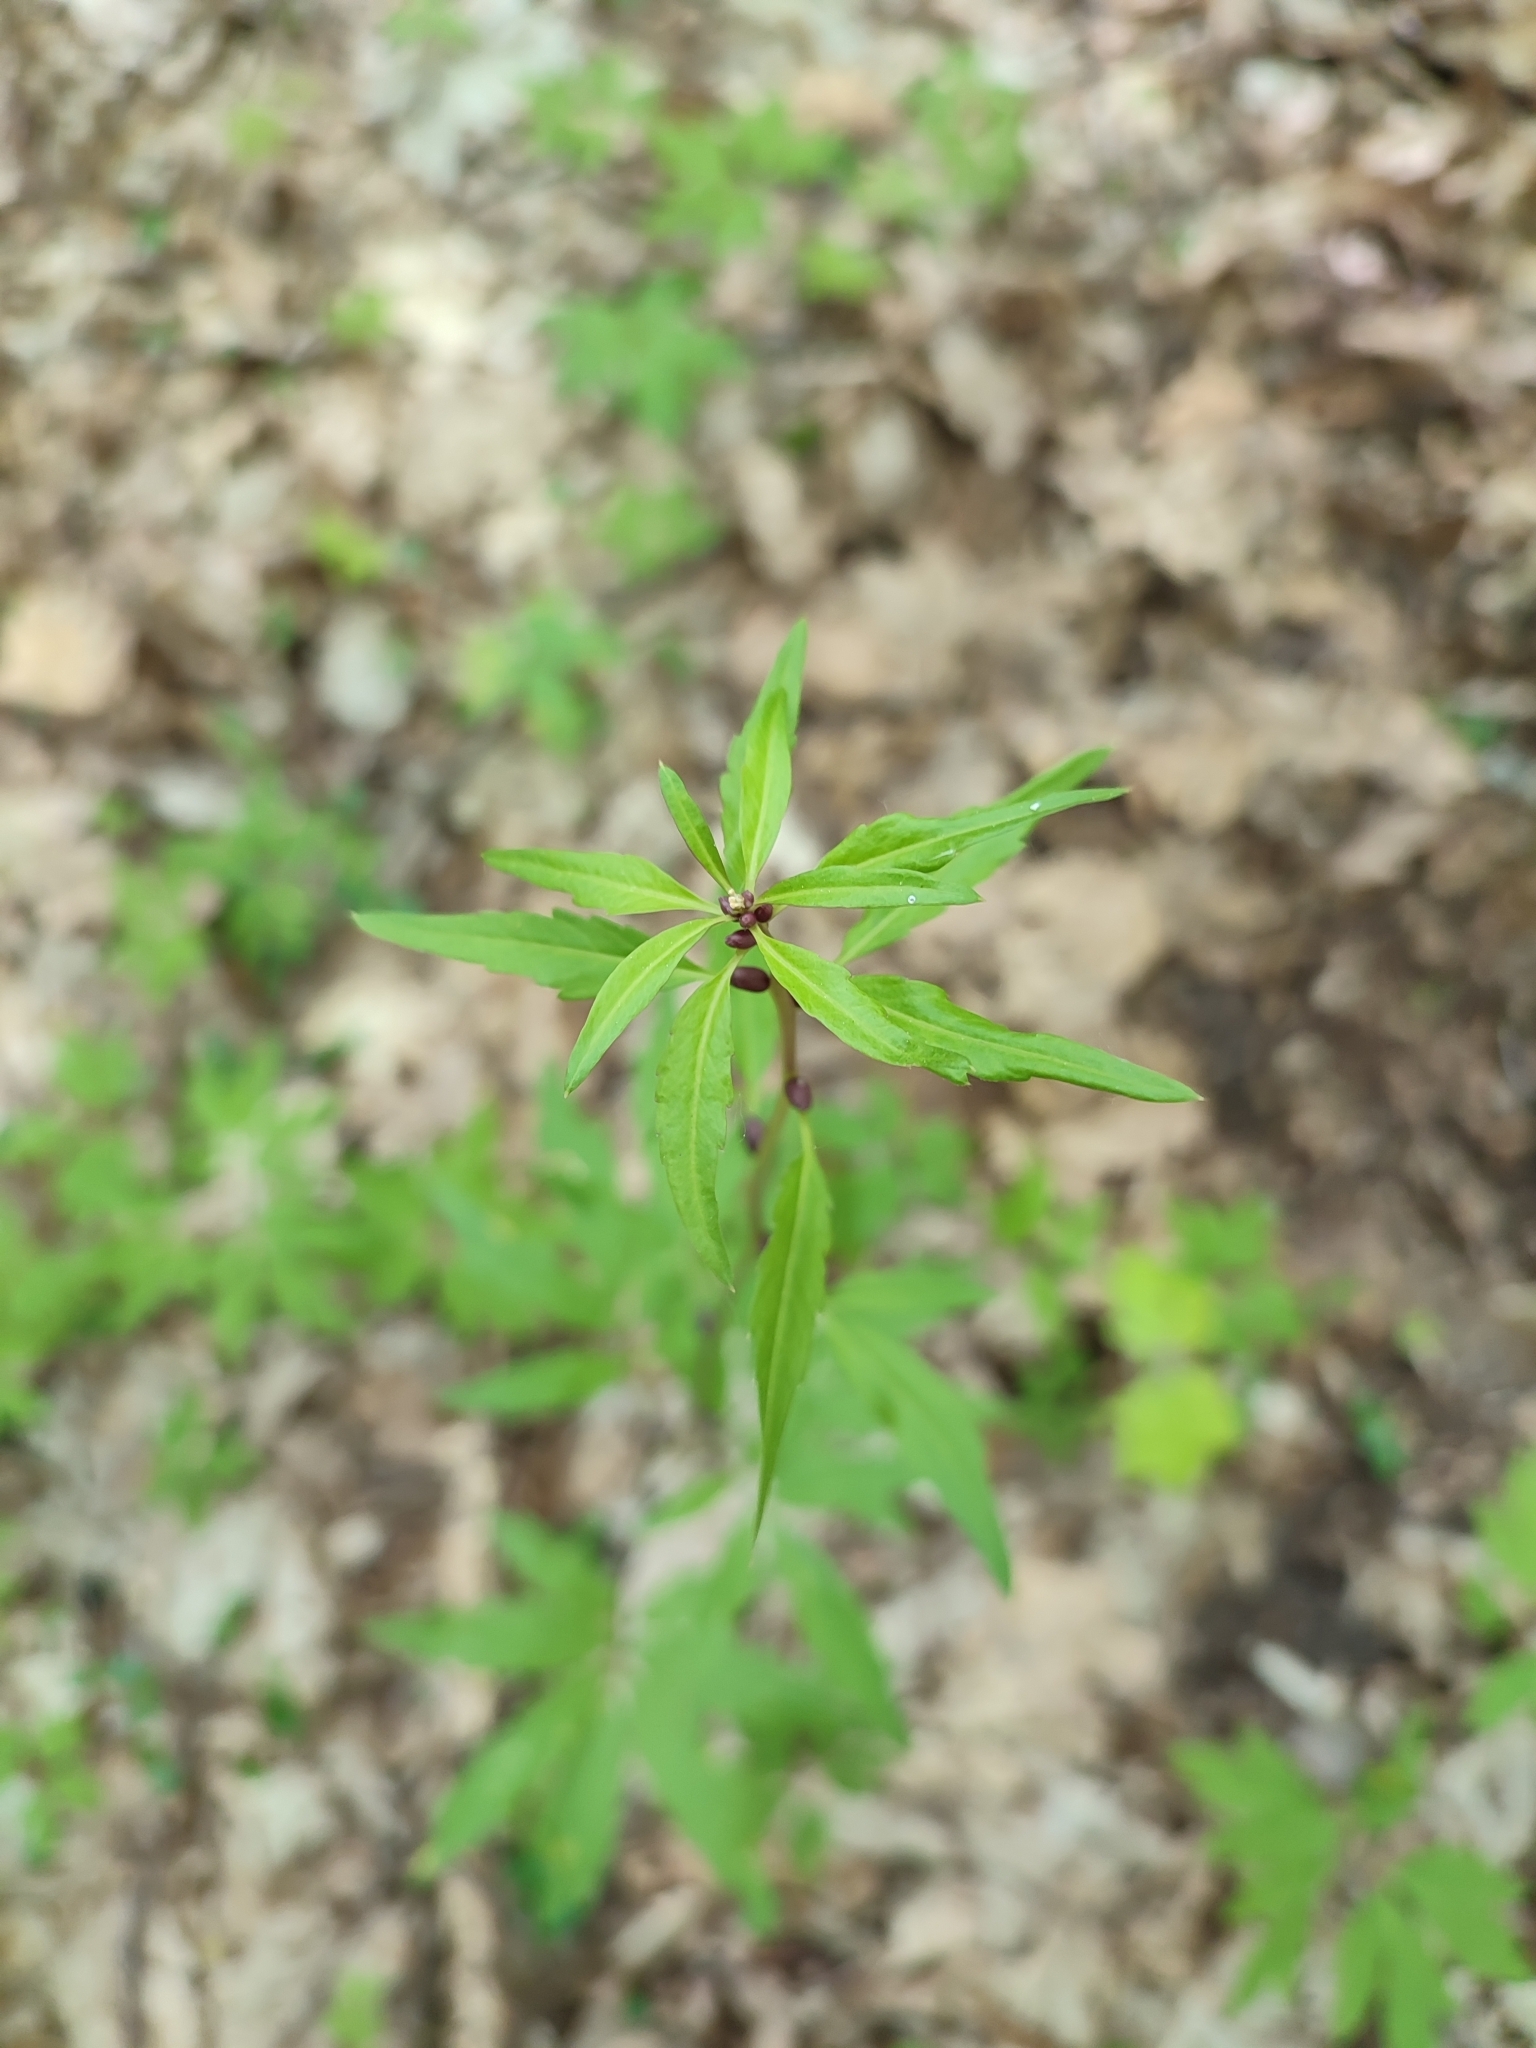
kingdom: Plantae
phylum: Tracheophyta
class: Magnoliopsida
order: Brassicales
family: Brassicaceae
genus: Cardamine
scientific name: Cardamine bulbifera
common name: Coralroot bittercress
